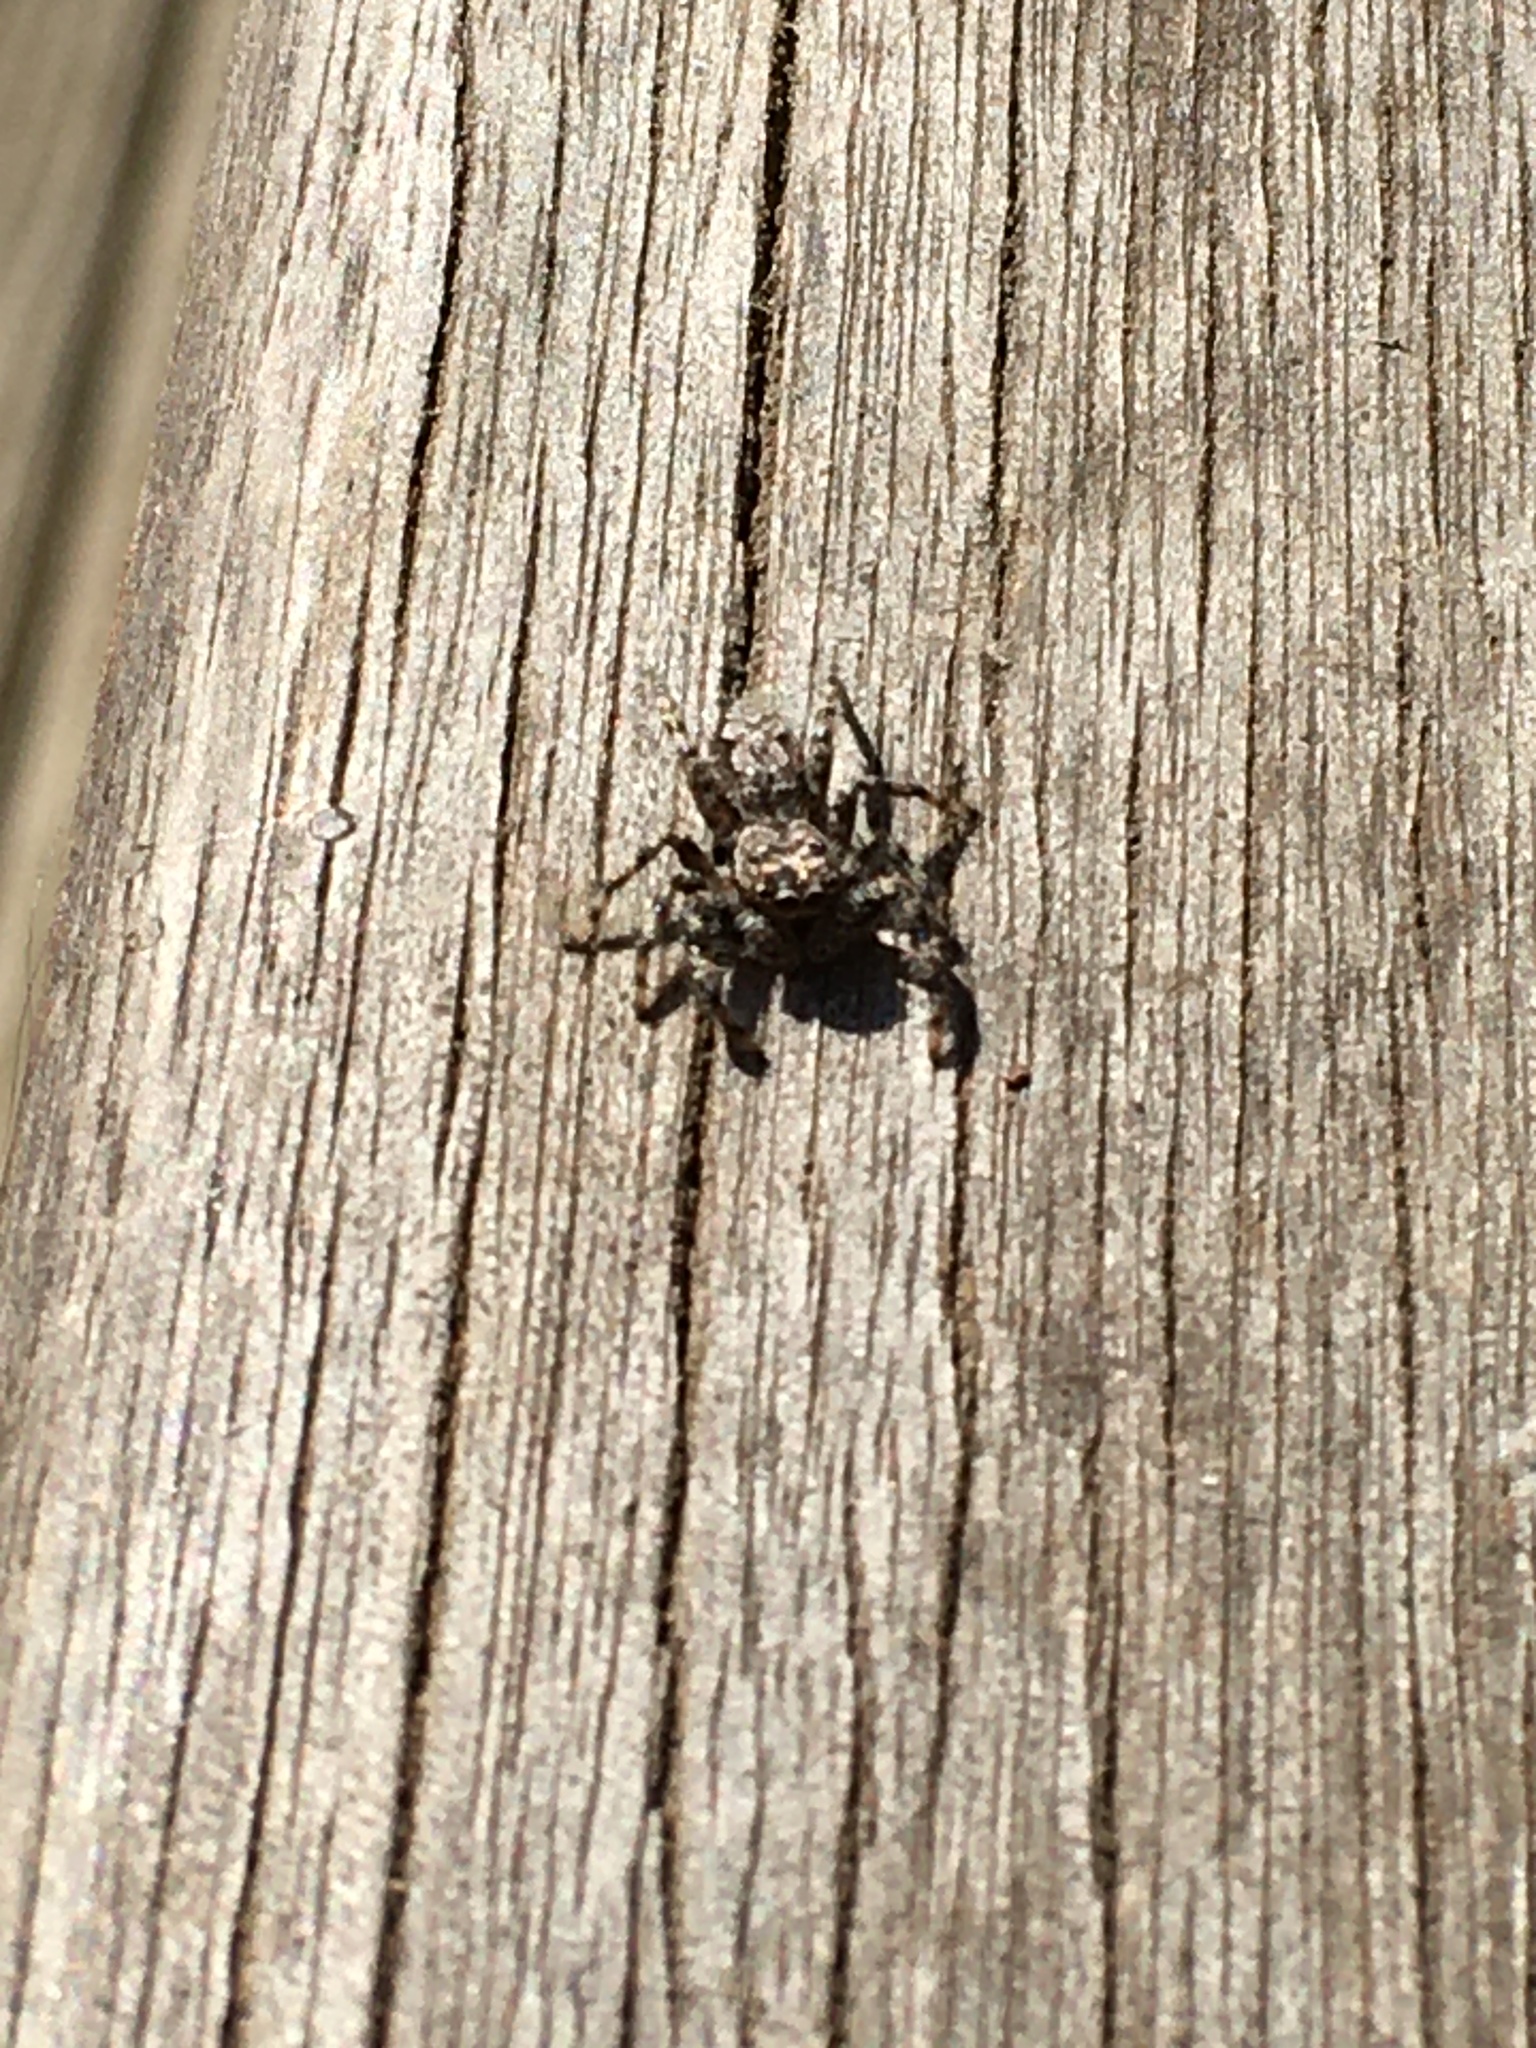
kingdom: Animalia
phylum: Arthropoda
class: Arachnida
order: Araneae
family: Salticidae
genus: Platycryptus
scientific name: Platycryptus undatus
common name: Tan jumping spider
